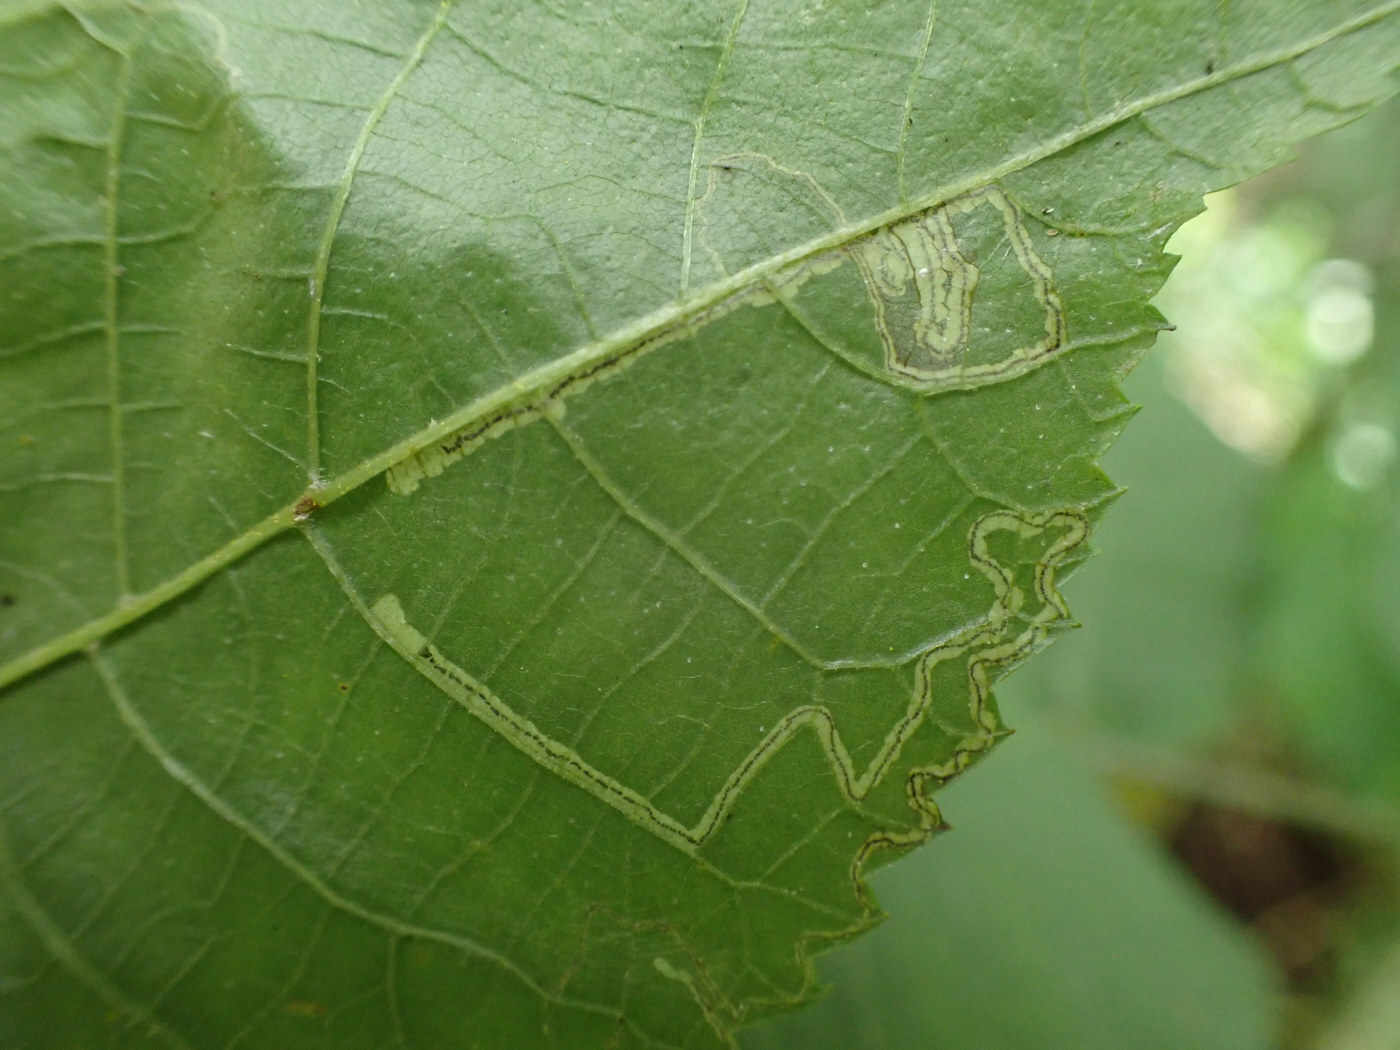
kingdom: Animalia
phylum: Arthropoda
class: Insecta
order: Lepidoptera
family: Nepticulidae
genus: Stigmella
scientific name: Stigmella caryaefoliella
